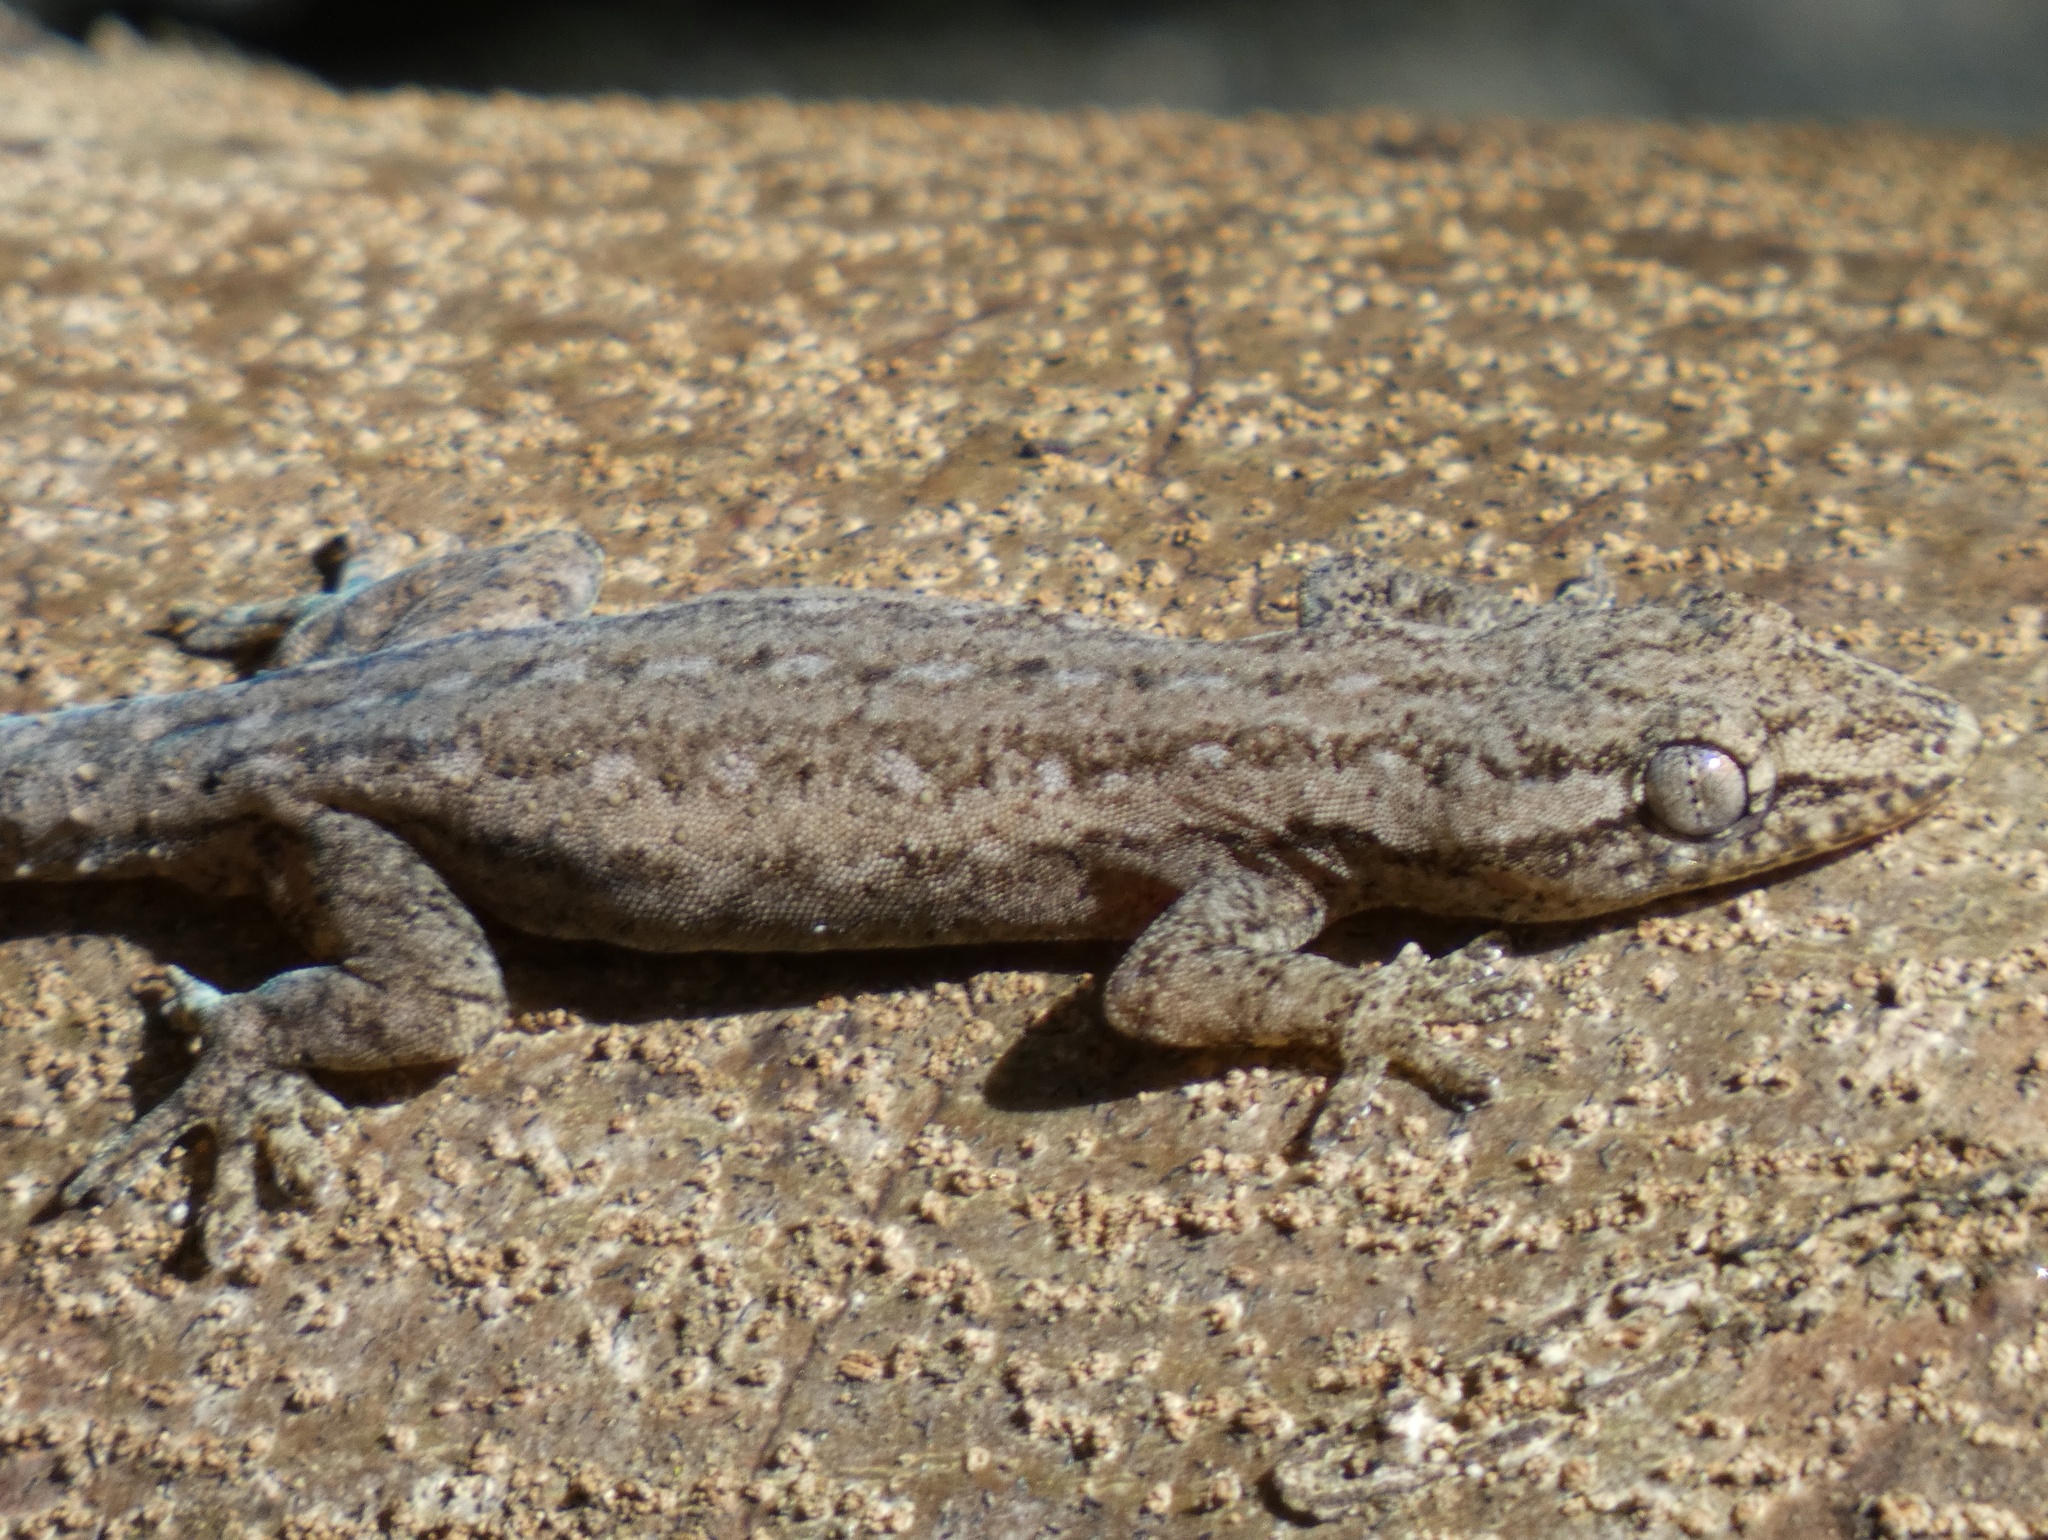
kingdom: Animalia
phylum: Chordata
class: Squamata
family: Gekkonidae
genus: Hemidactylus
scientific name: Hemidactylus frenatus
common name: Common house gecko
